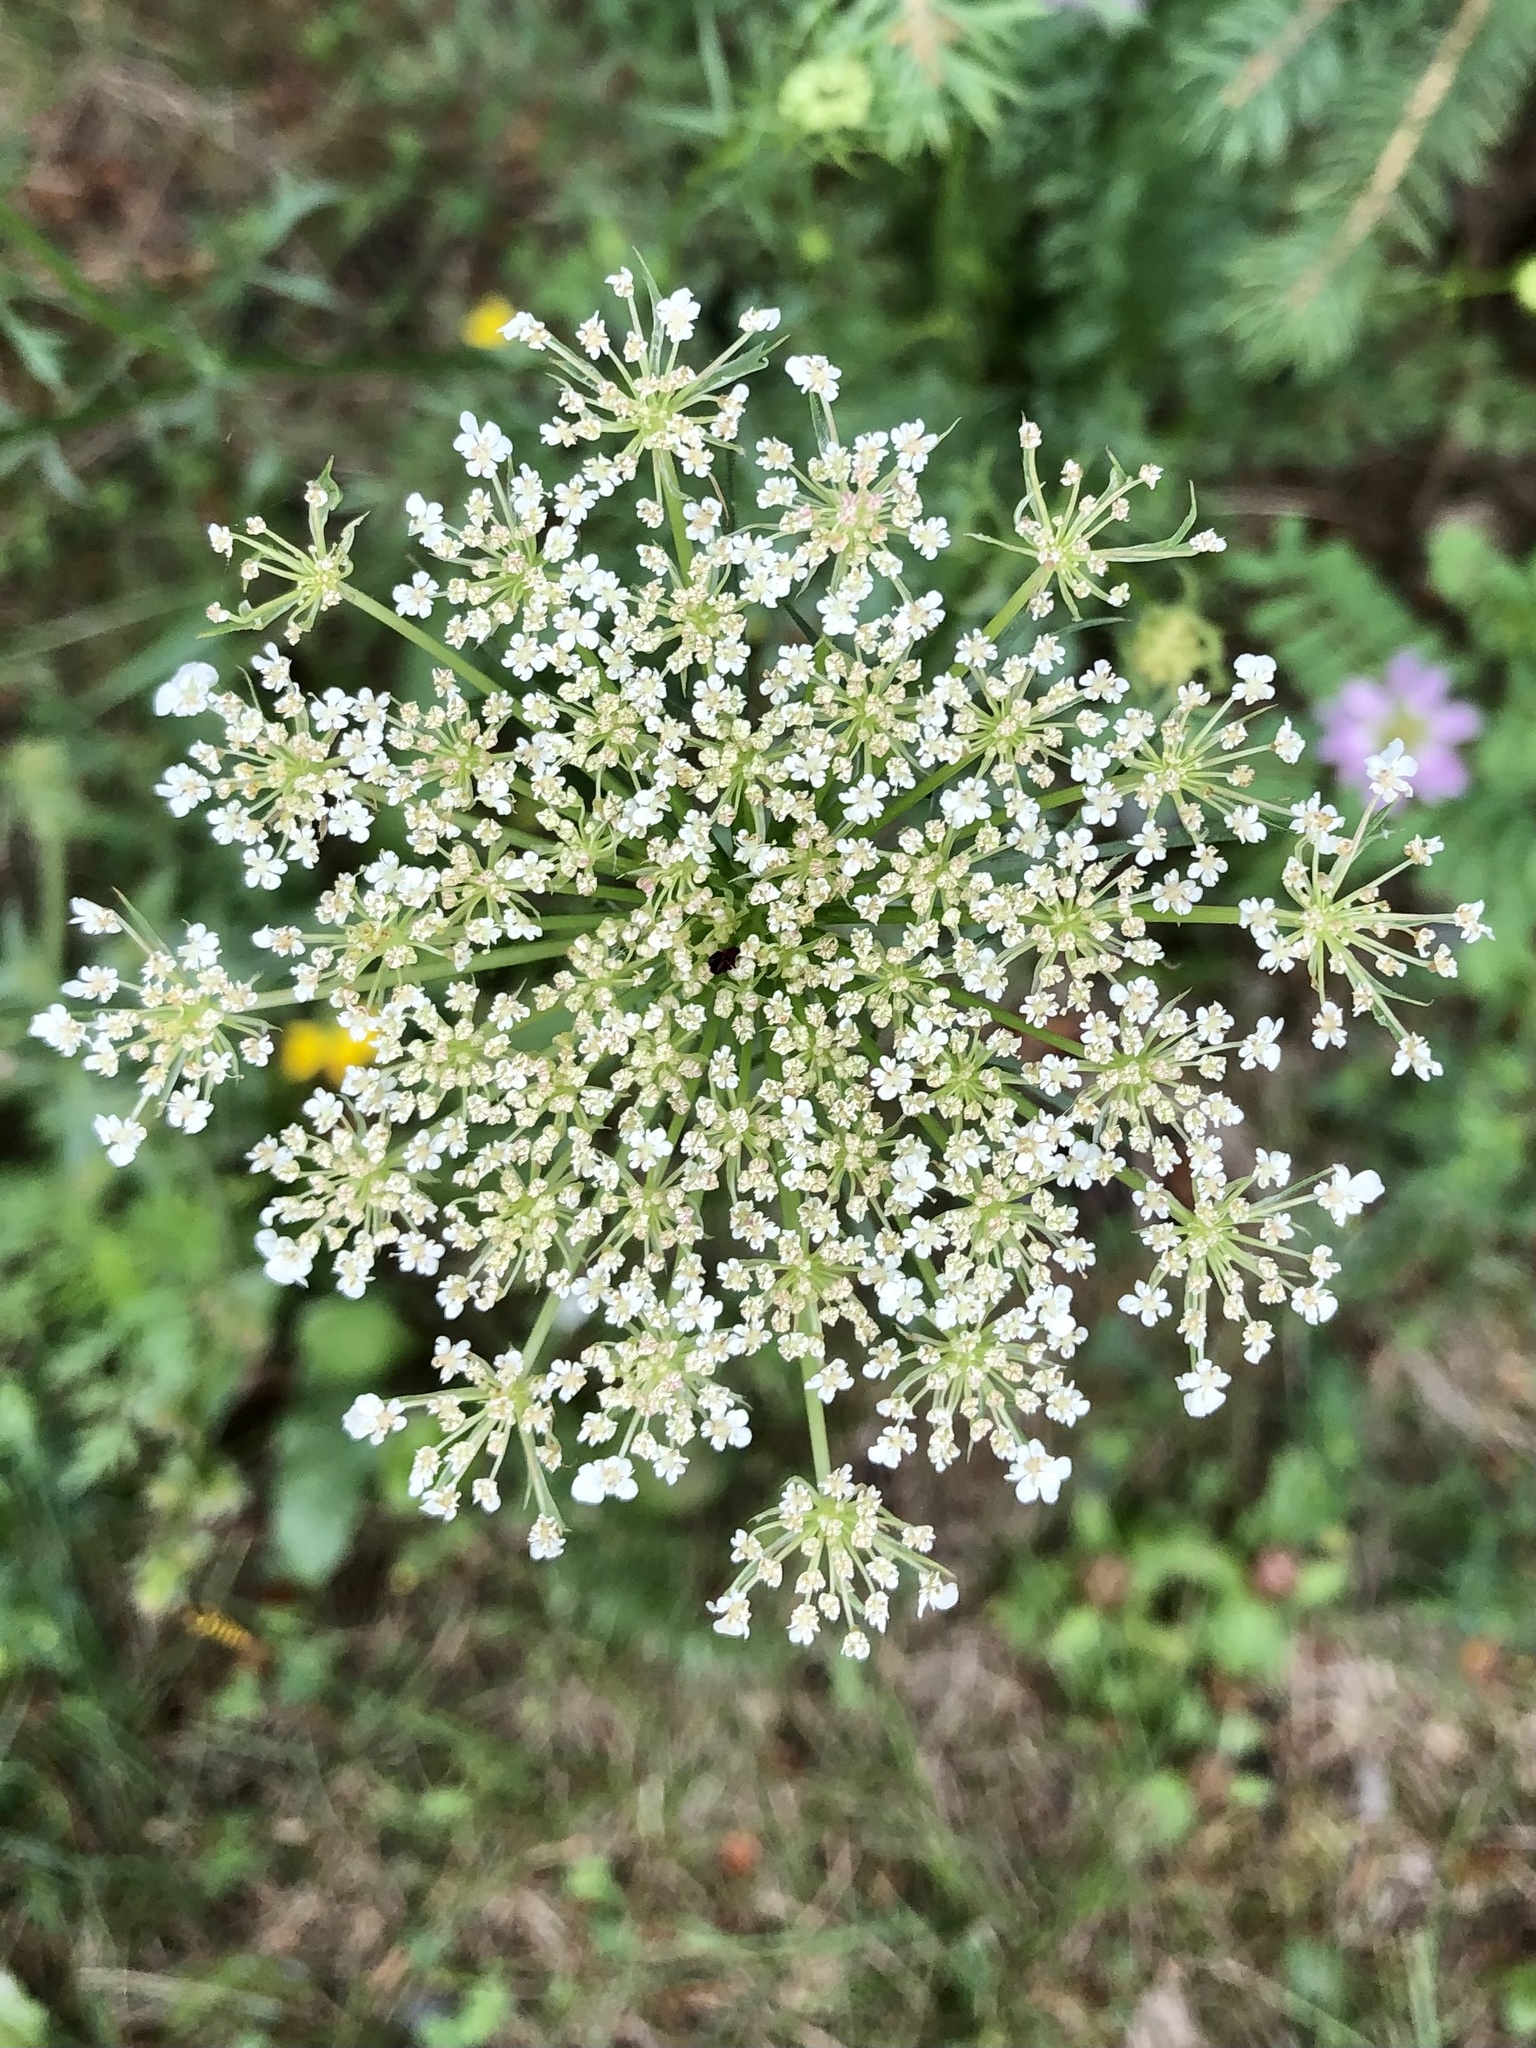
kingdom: Plantae
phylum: Tracheophyta
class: Magnoliopsida
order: Apiales
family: Apiaceae
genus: Daucus
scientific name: Daucus carota
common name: Wild carrot
